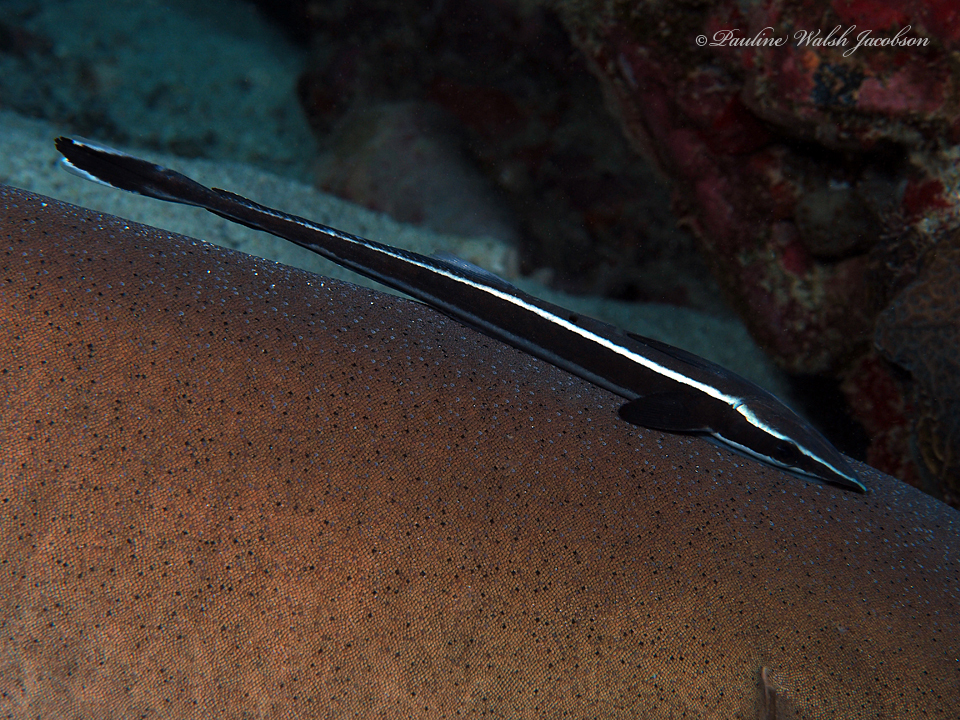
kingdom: Animalia
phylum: Chordata
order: Perciformes
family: Echeneidae
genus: Echeneis
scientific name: Echeneis naucrates
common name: Sharksucker
